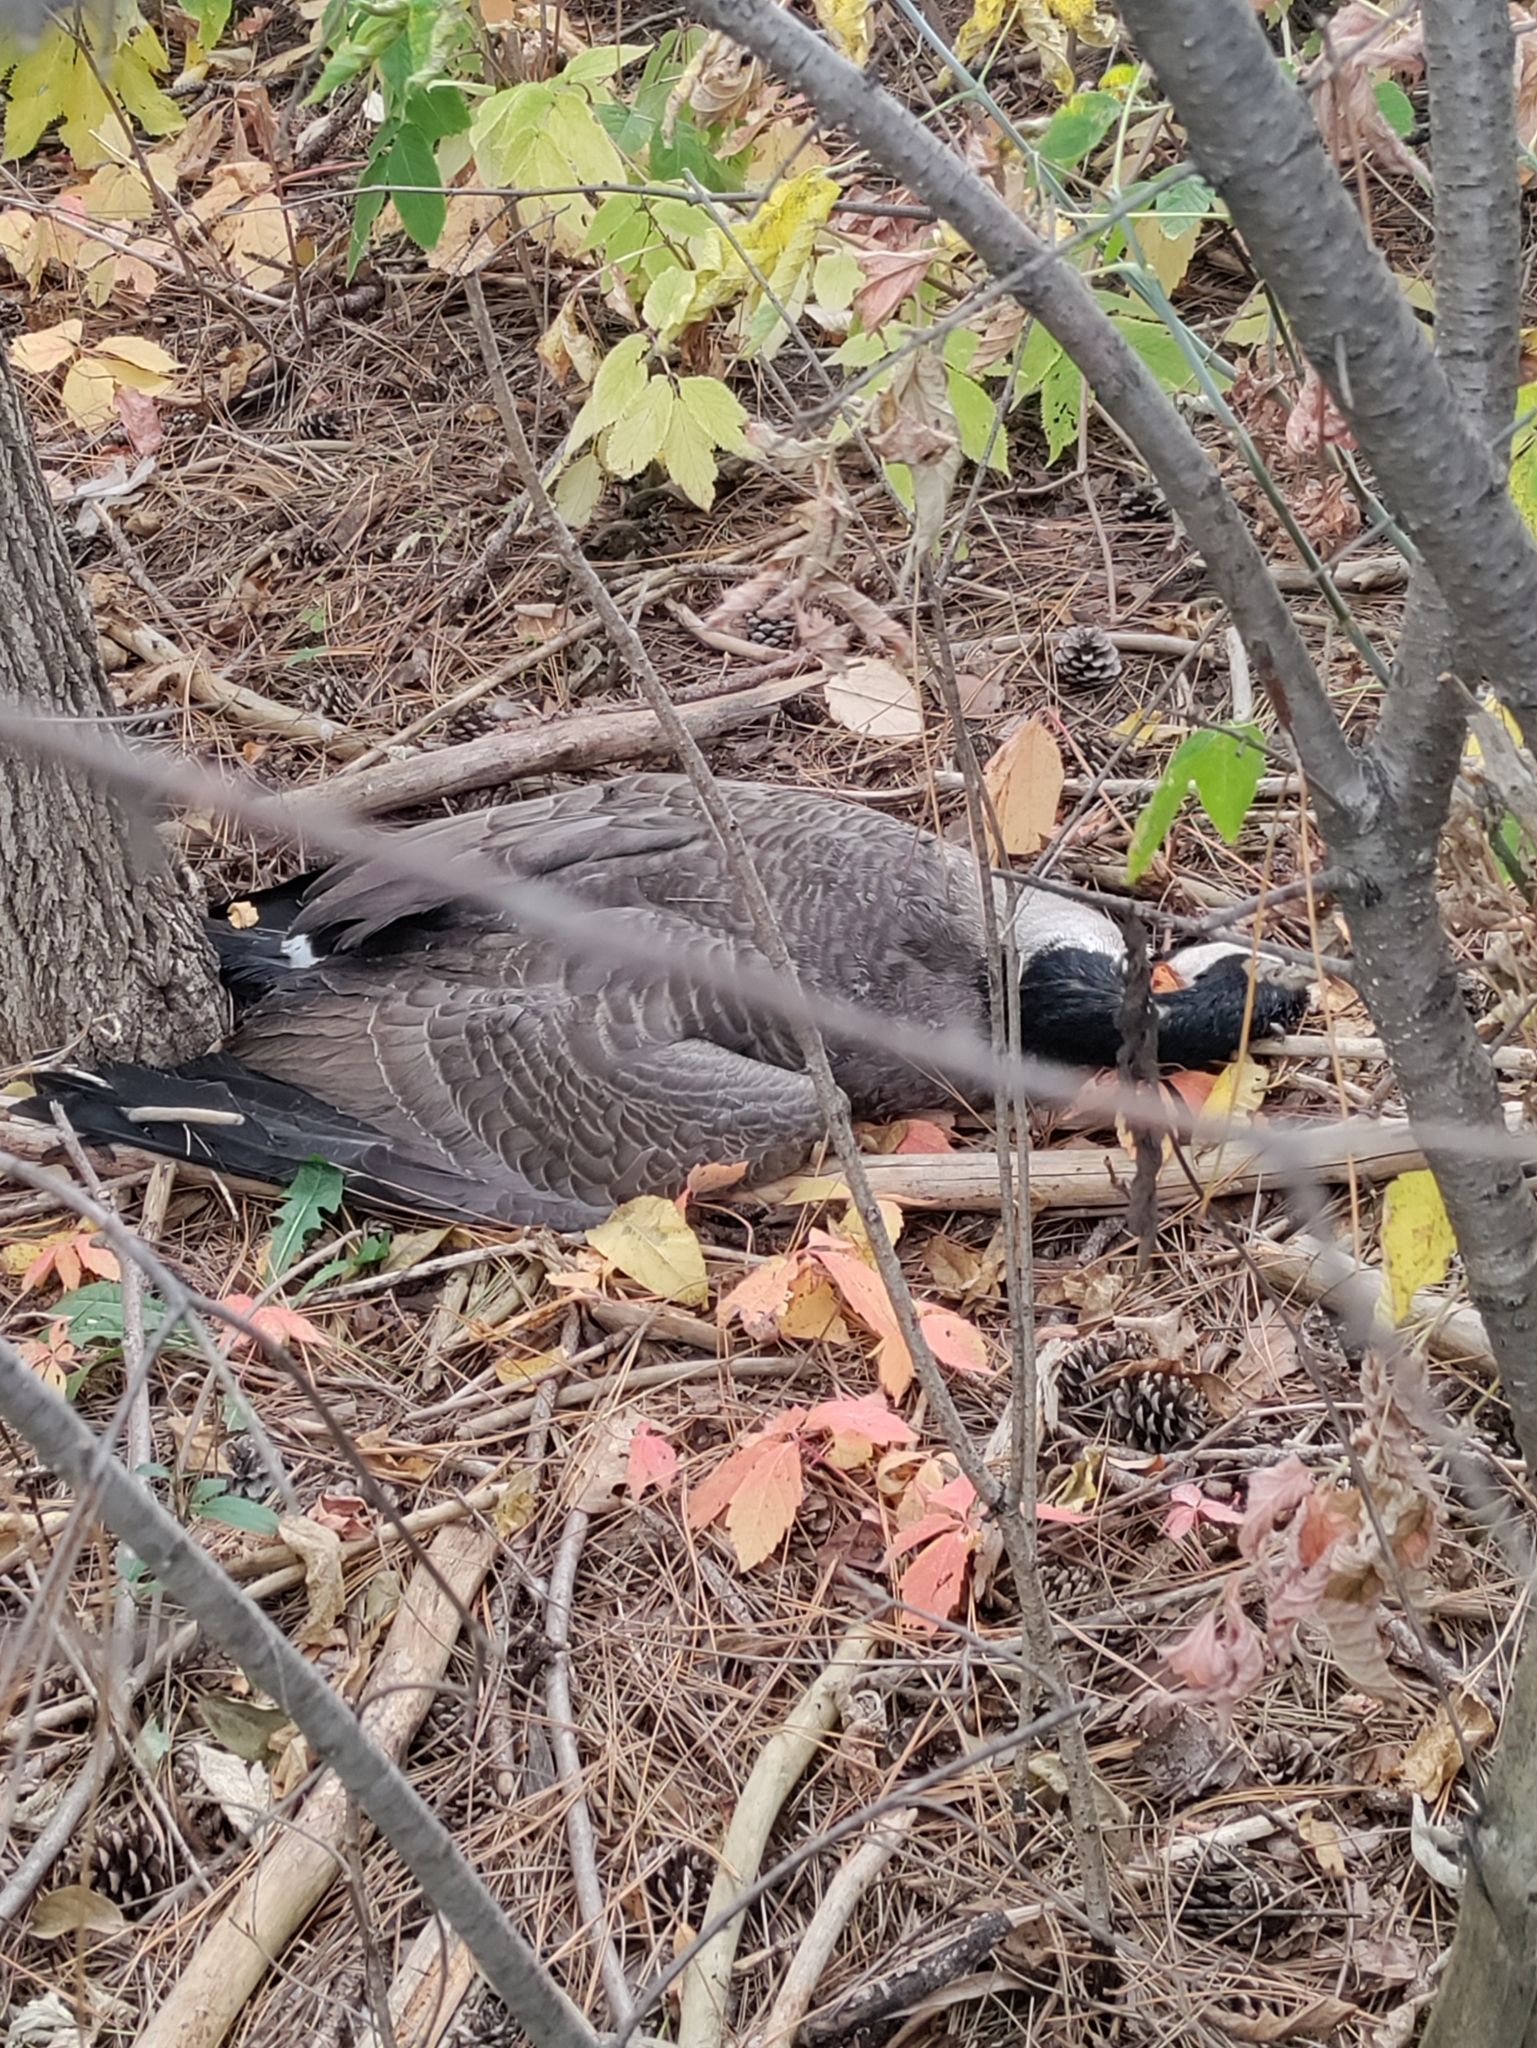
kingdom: Animalia
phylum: Chordata
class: Aves
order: Anseriformes
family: Anatidae
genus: Branta
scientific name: Branta canadensis
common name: Canada goose
